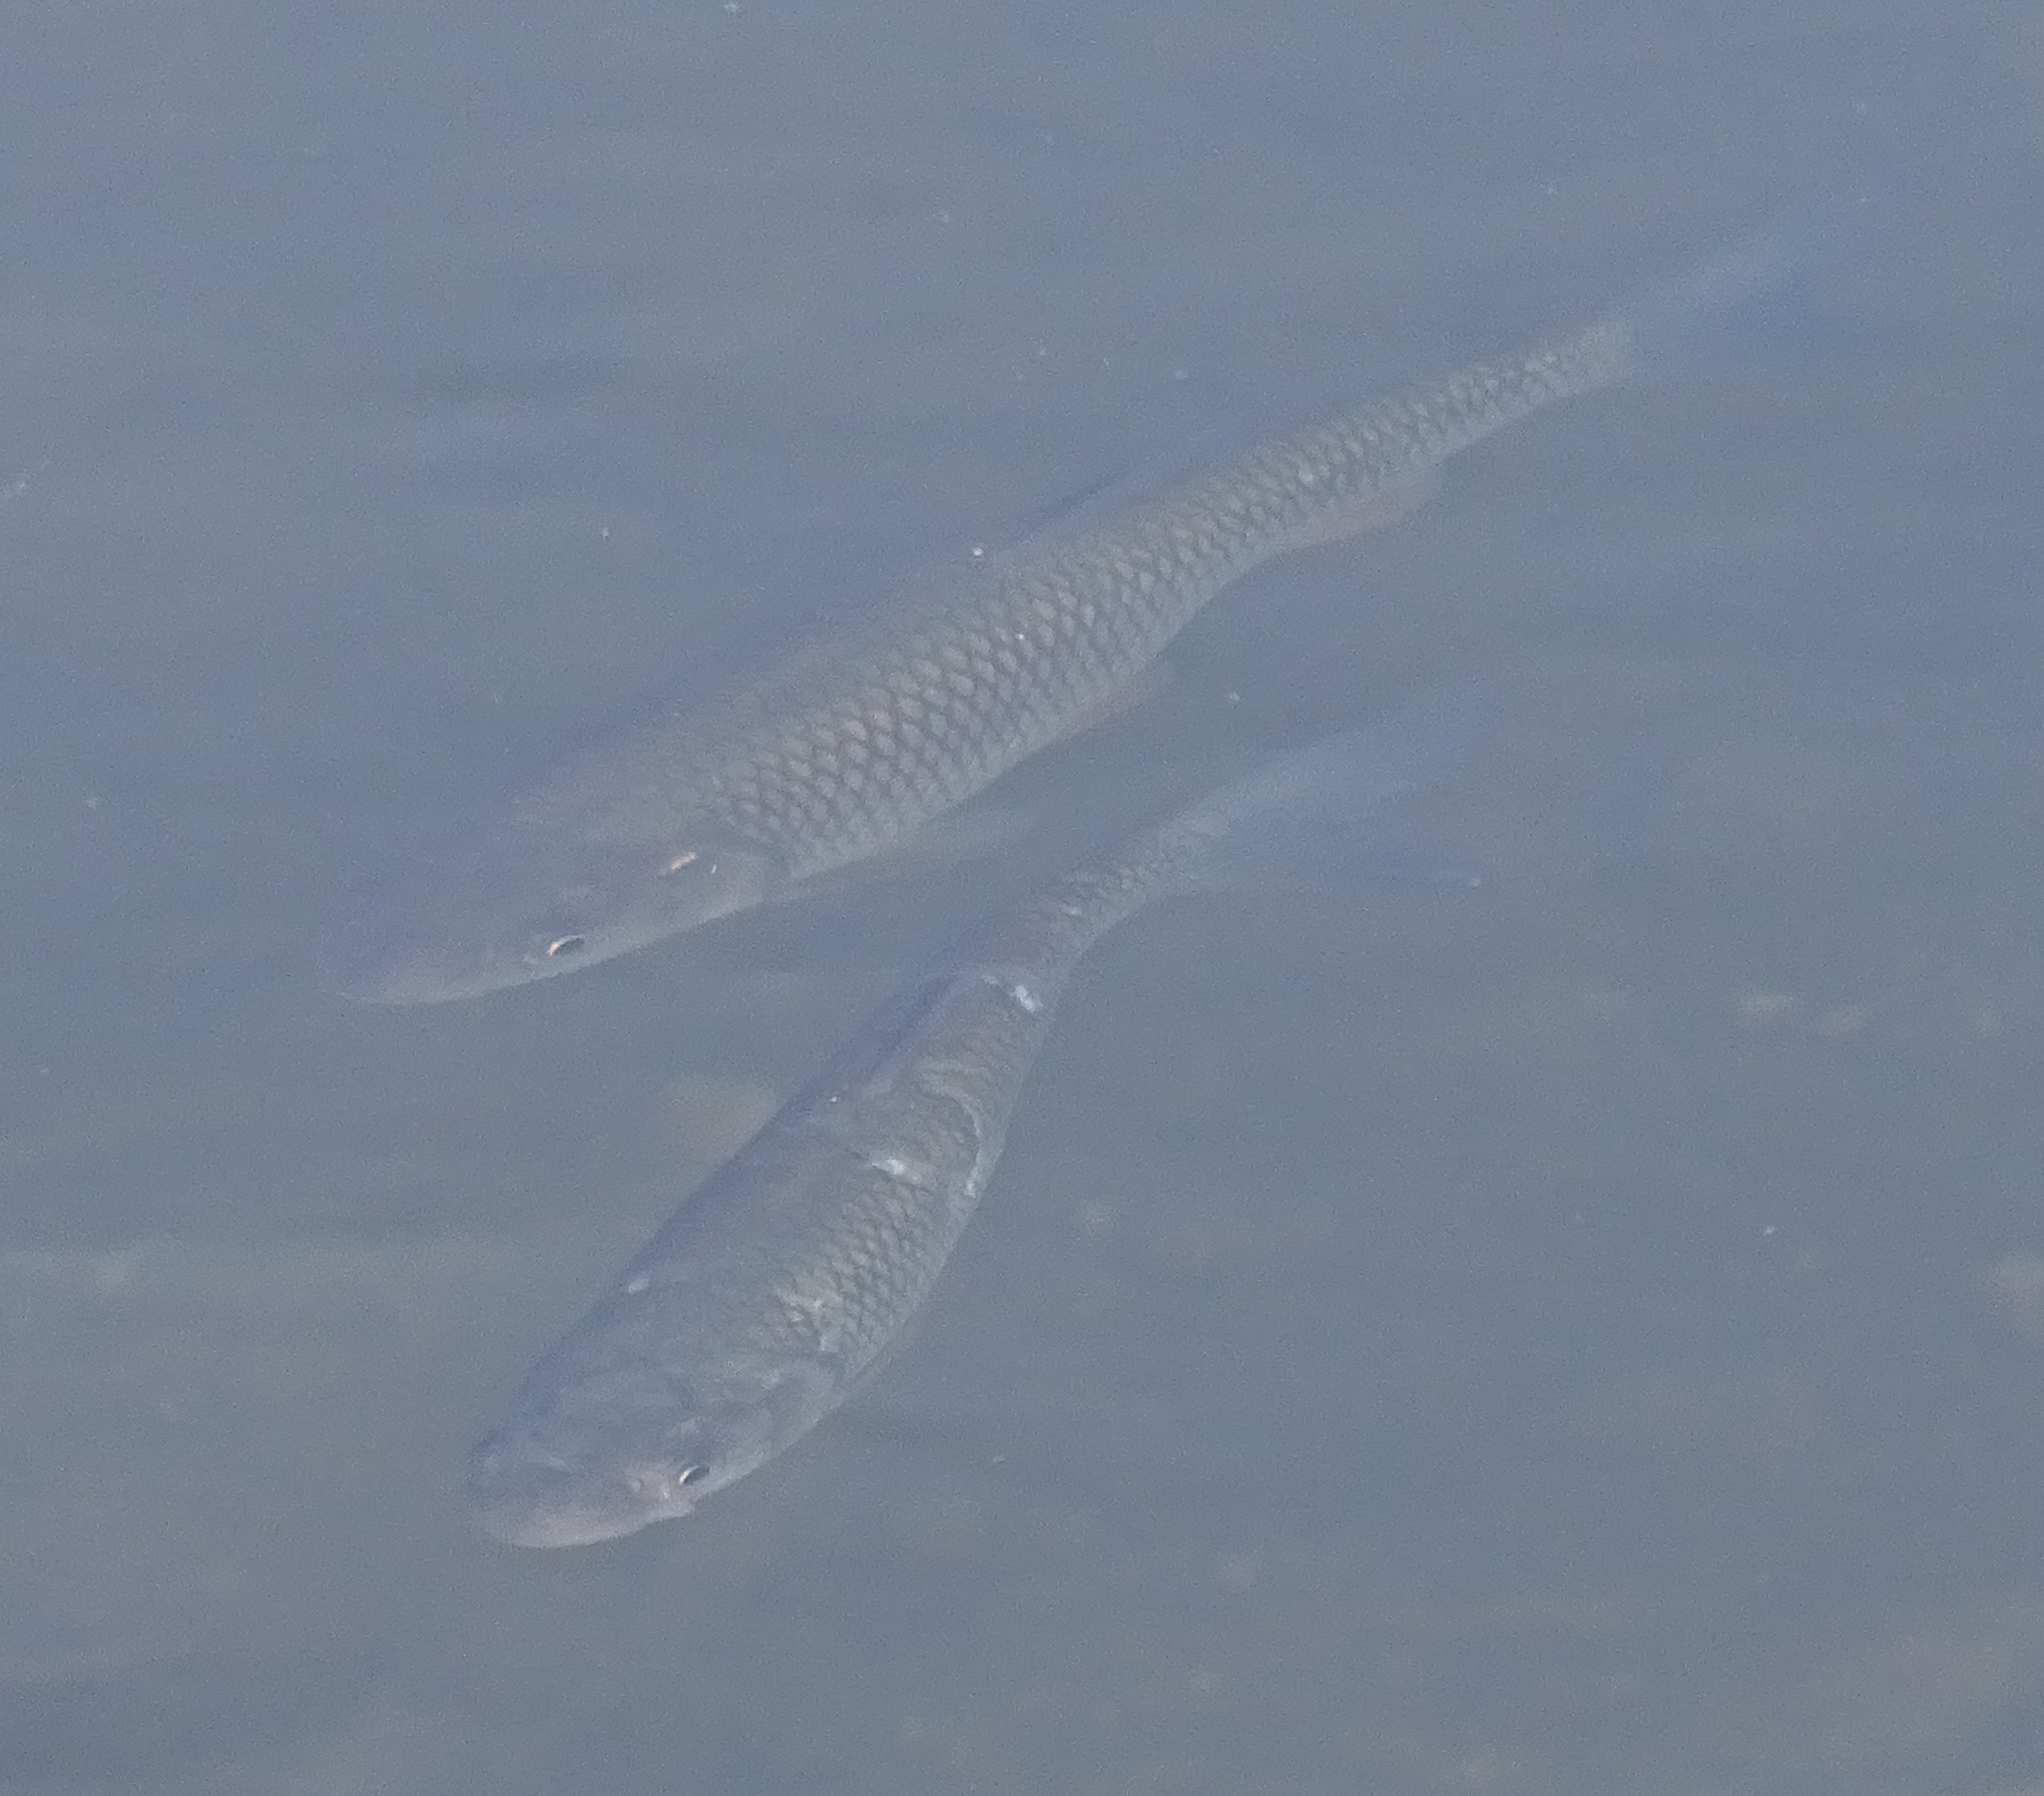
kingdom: Animalia
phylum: Chordata
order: Cypriniformes
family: Cyprinidae
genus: Squalius
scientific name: Squalius cephalus
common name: Chub
